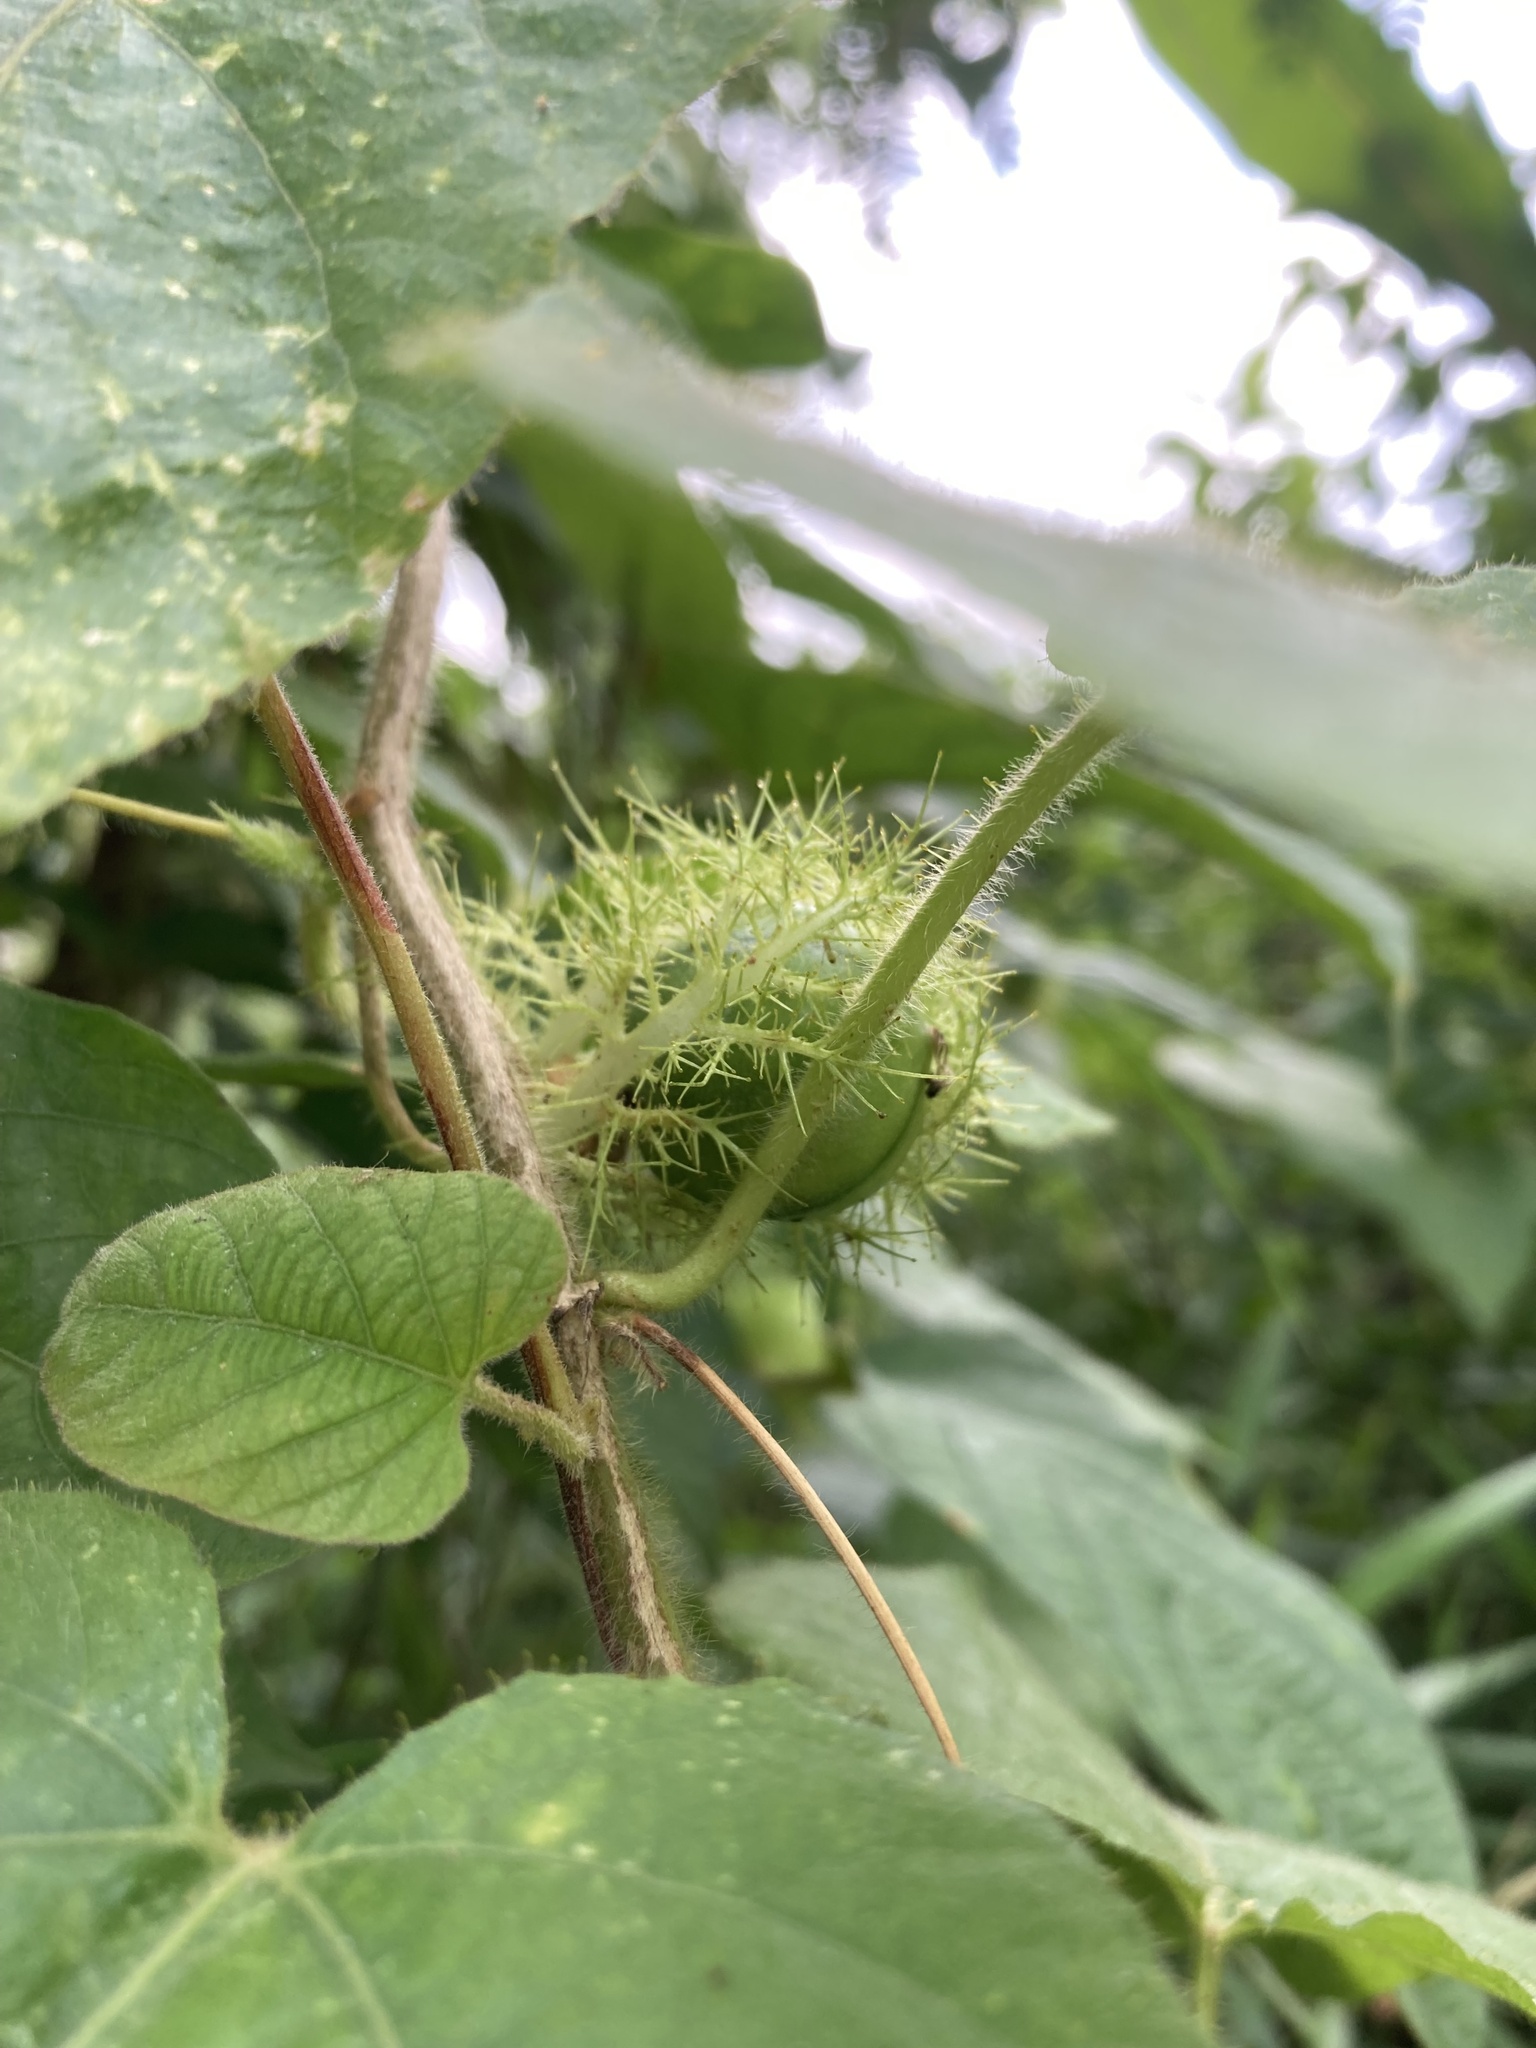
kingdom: Plantae
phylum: Tracheophyta
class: Magnoliopsida
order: Malpighiales
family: Passifloraceae
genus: Passiflora
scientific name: Passiflora foetida
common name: Fetid passionflower
